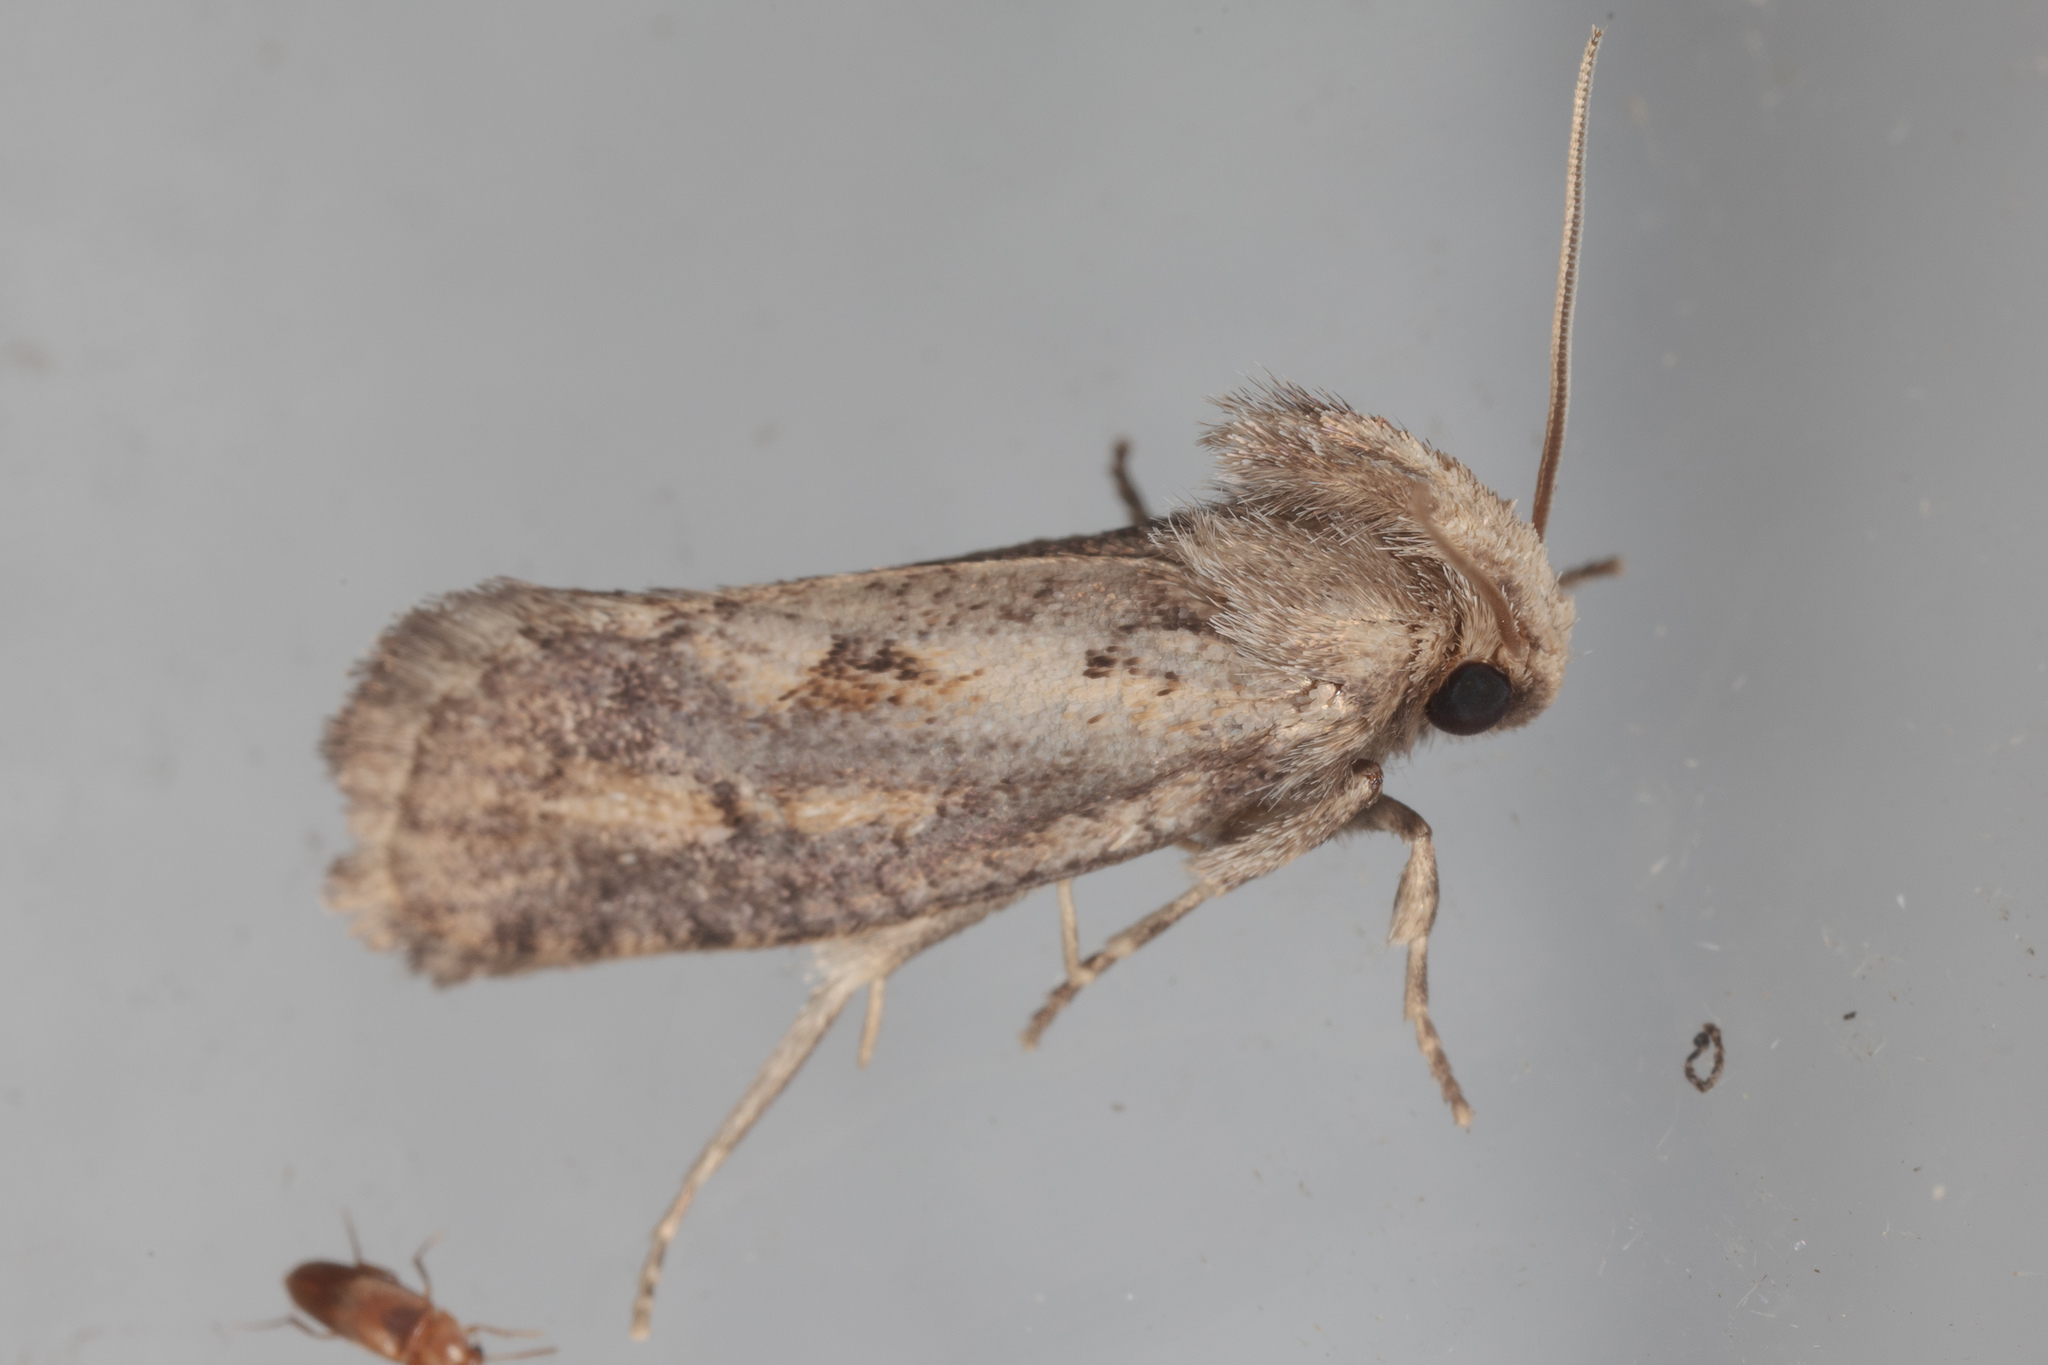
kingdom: Animalia
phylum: Arthropoda
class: Insecta
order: Lepidoptera
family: Tineidae
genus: Acrolophus
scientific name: Acrolophus popeanella
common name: Clemens' grass tubeworm moth
